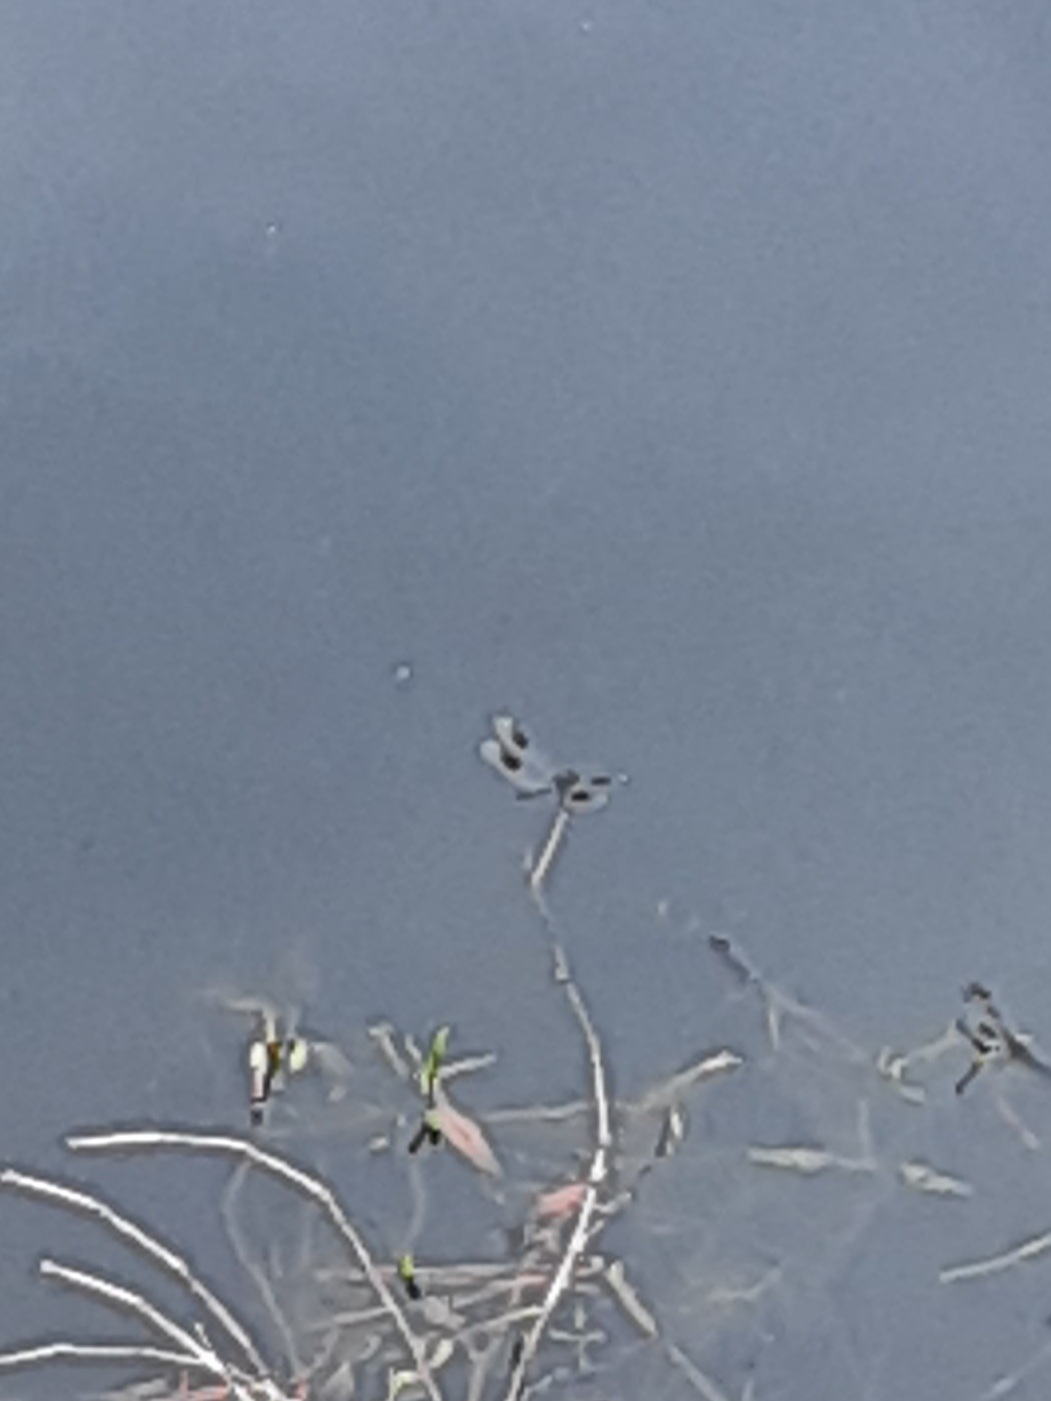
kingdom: Animalia
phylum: Arthropoda
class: Insecta
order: Odonata
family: Libellulidae
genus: Brachymesia
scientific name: Brachymesia gravida
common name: Four-spotted pennant
